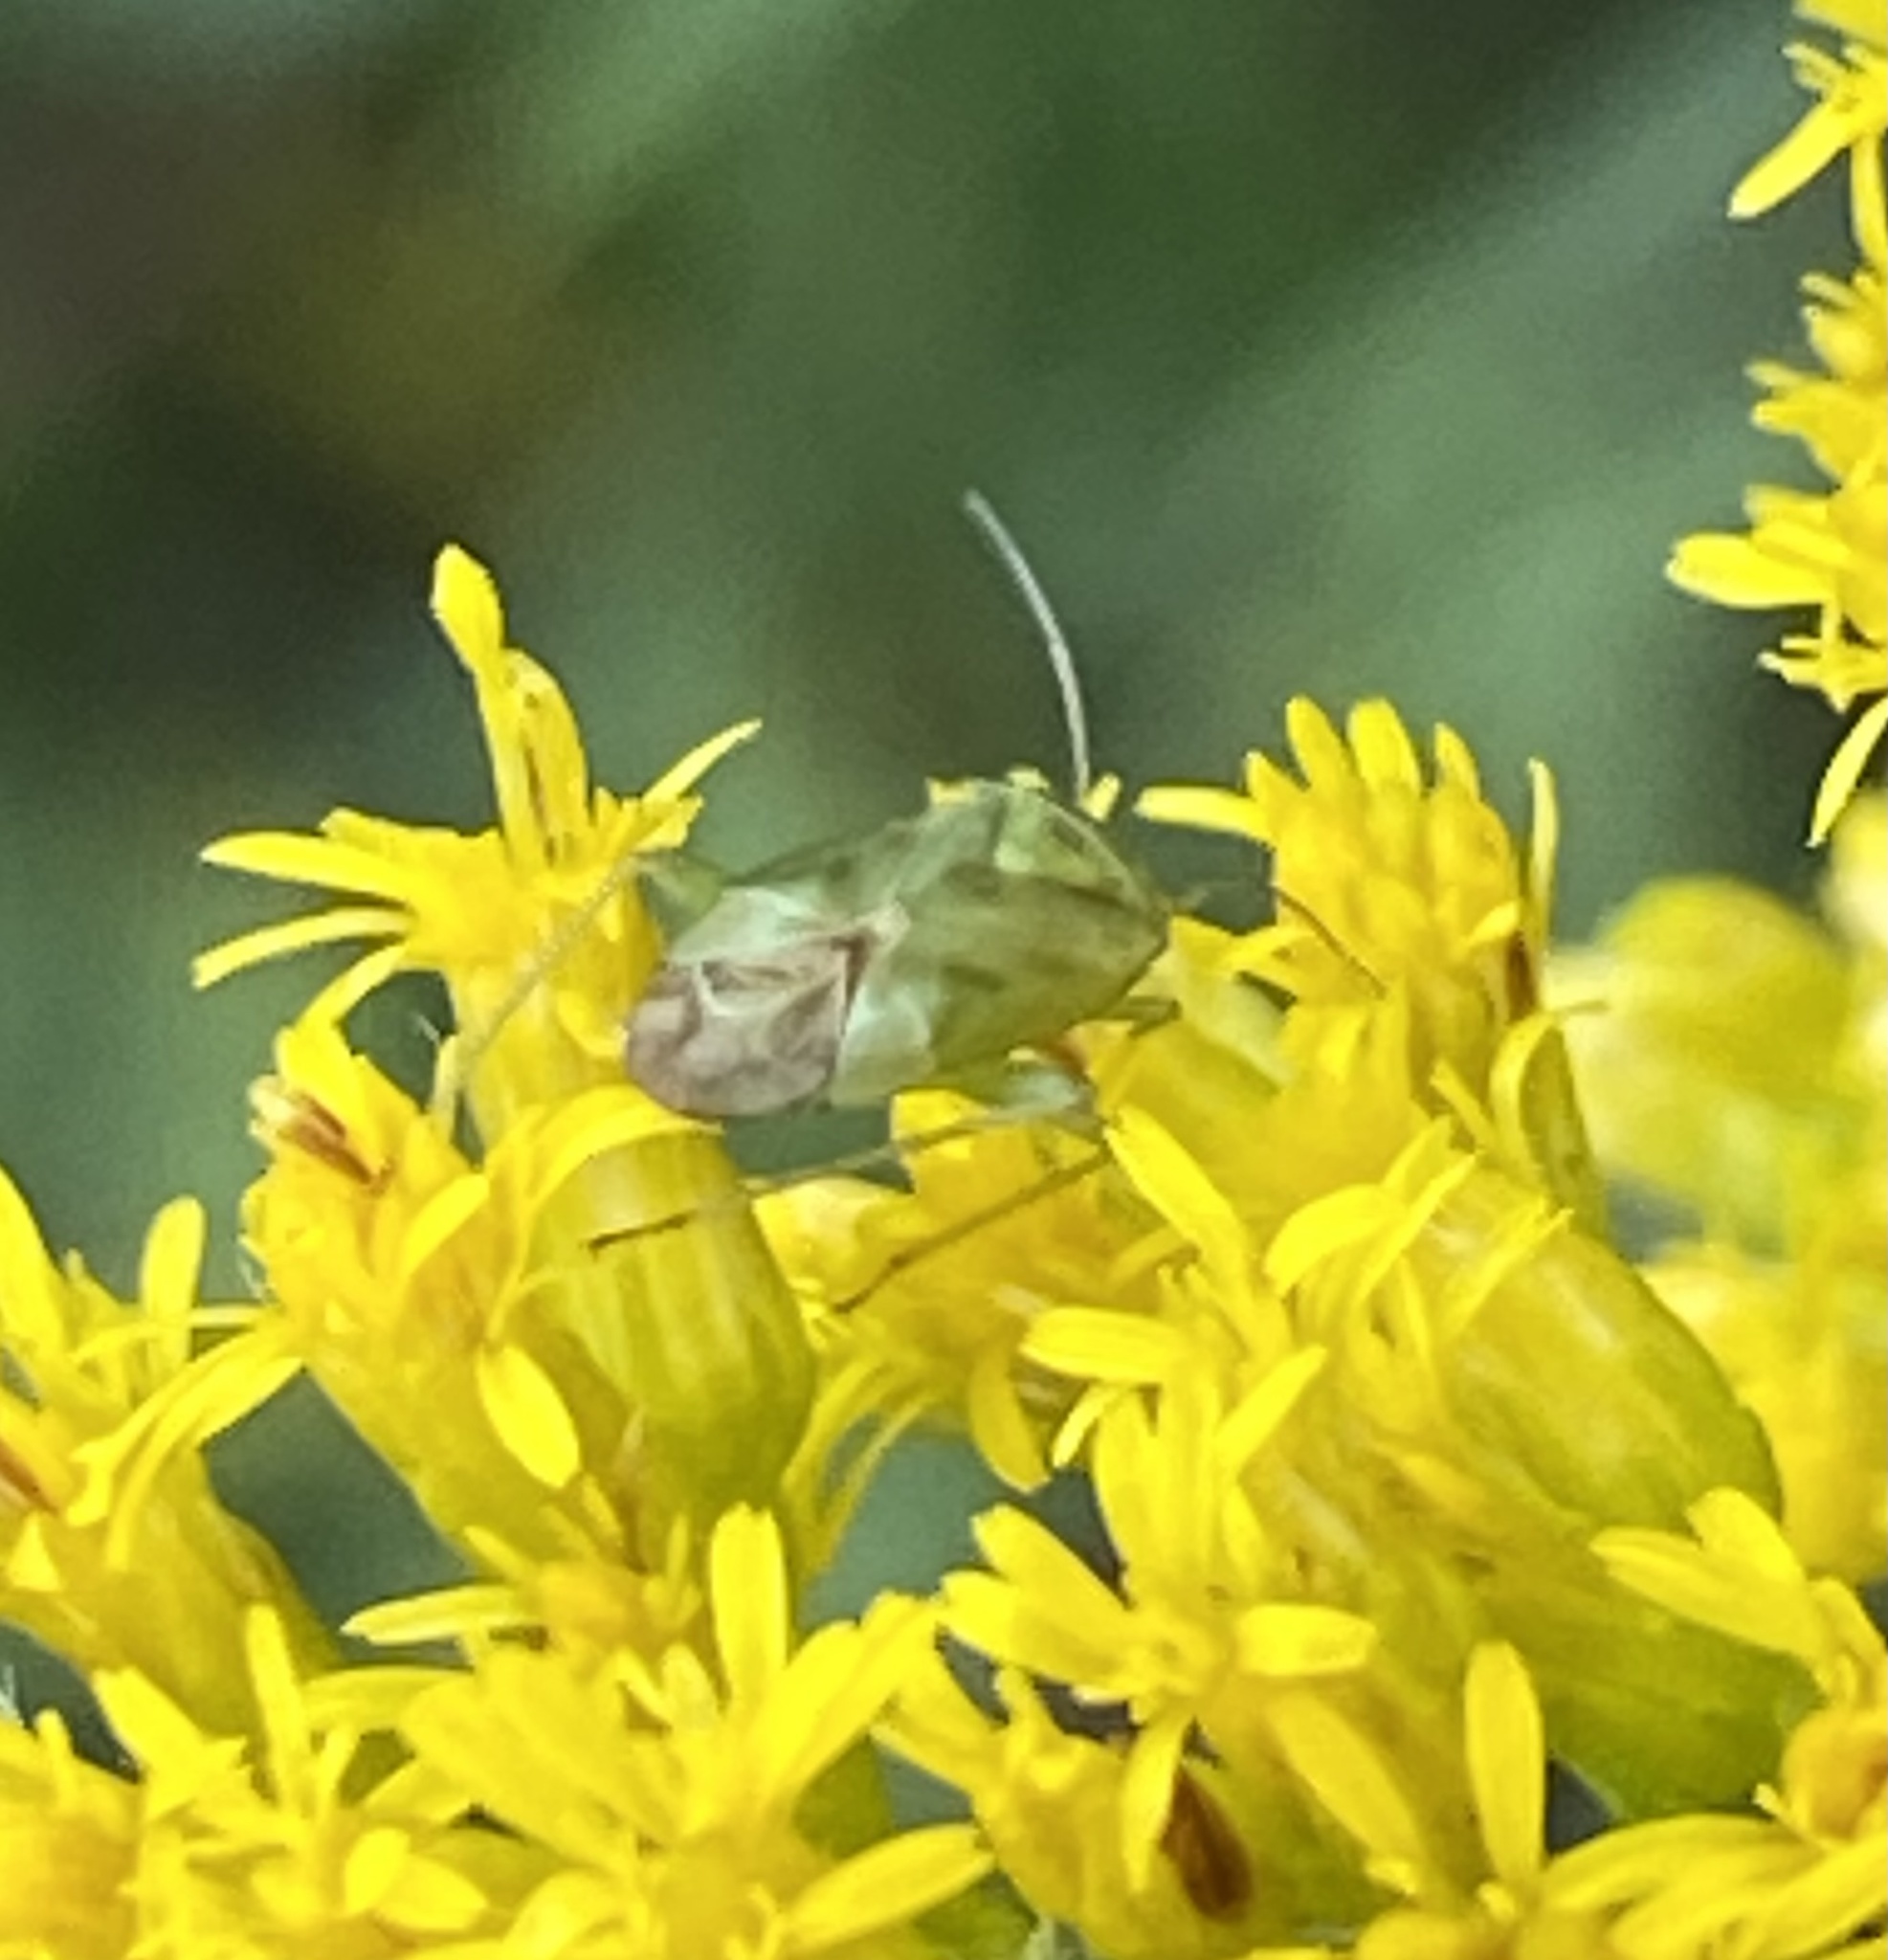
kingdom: Animalia
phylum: Arthropoda
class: Insecta
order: Hemiptera
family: Miridae
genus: Taylorilygus
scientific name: Taylorilygus apicalis
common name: Plant bug
